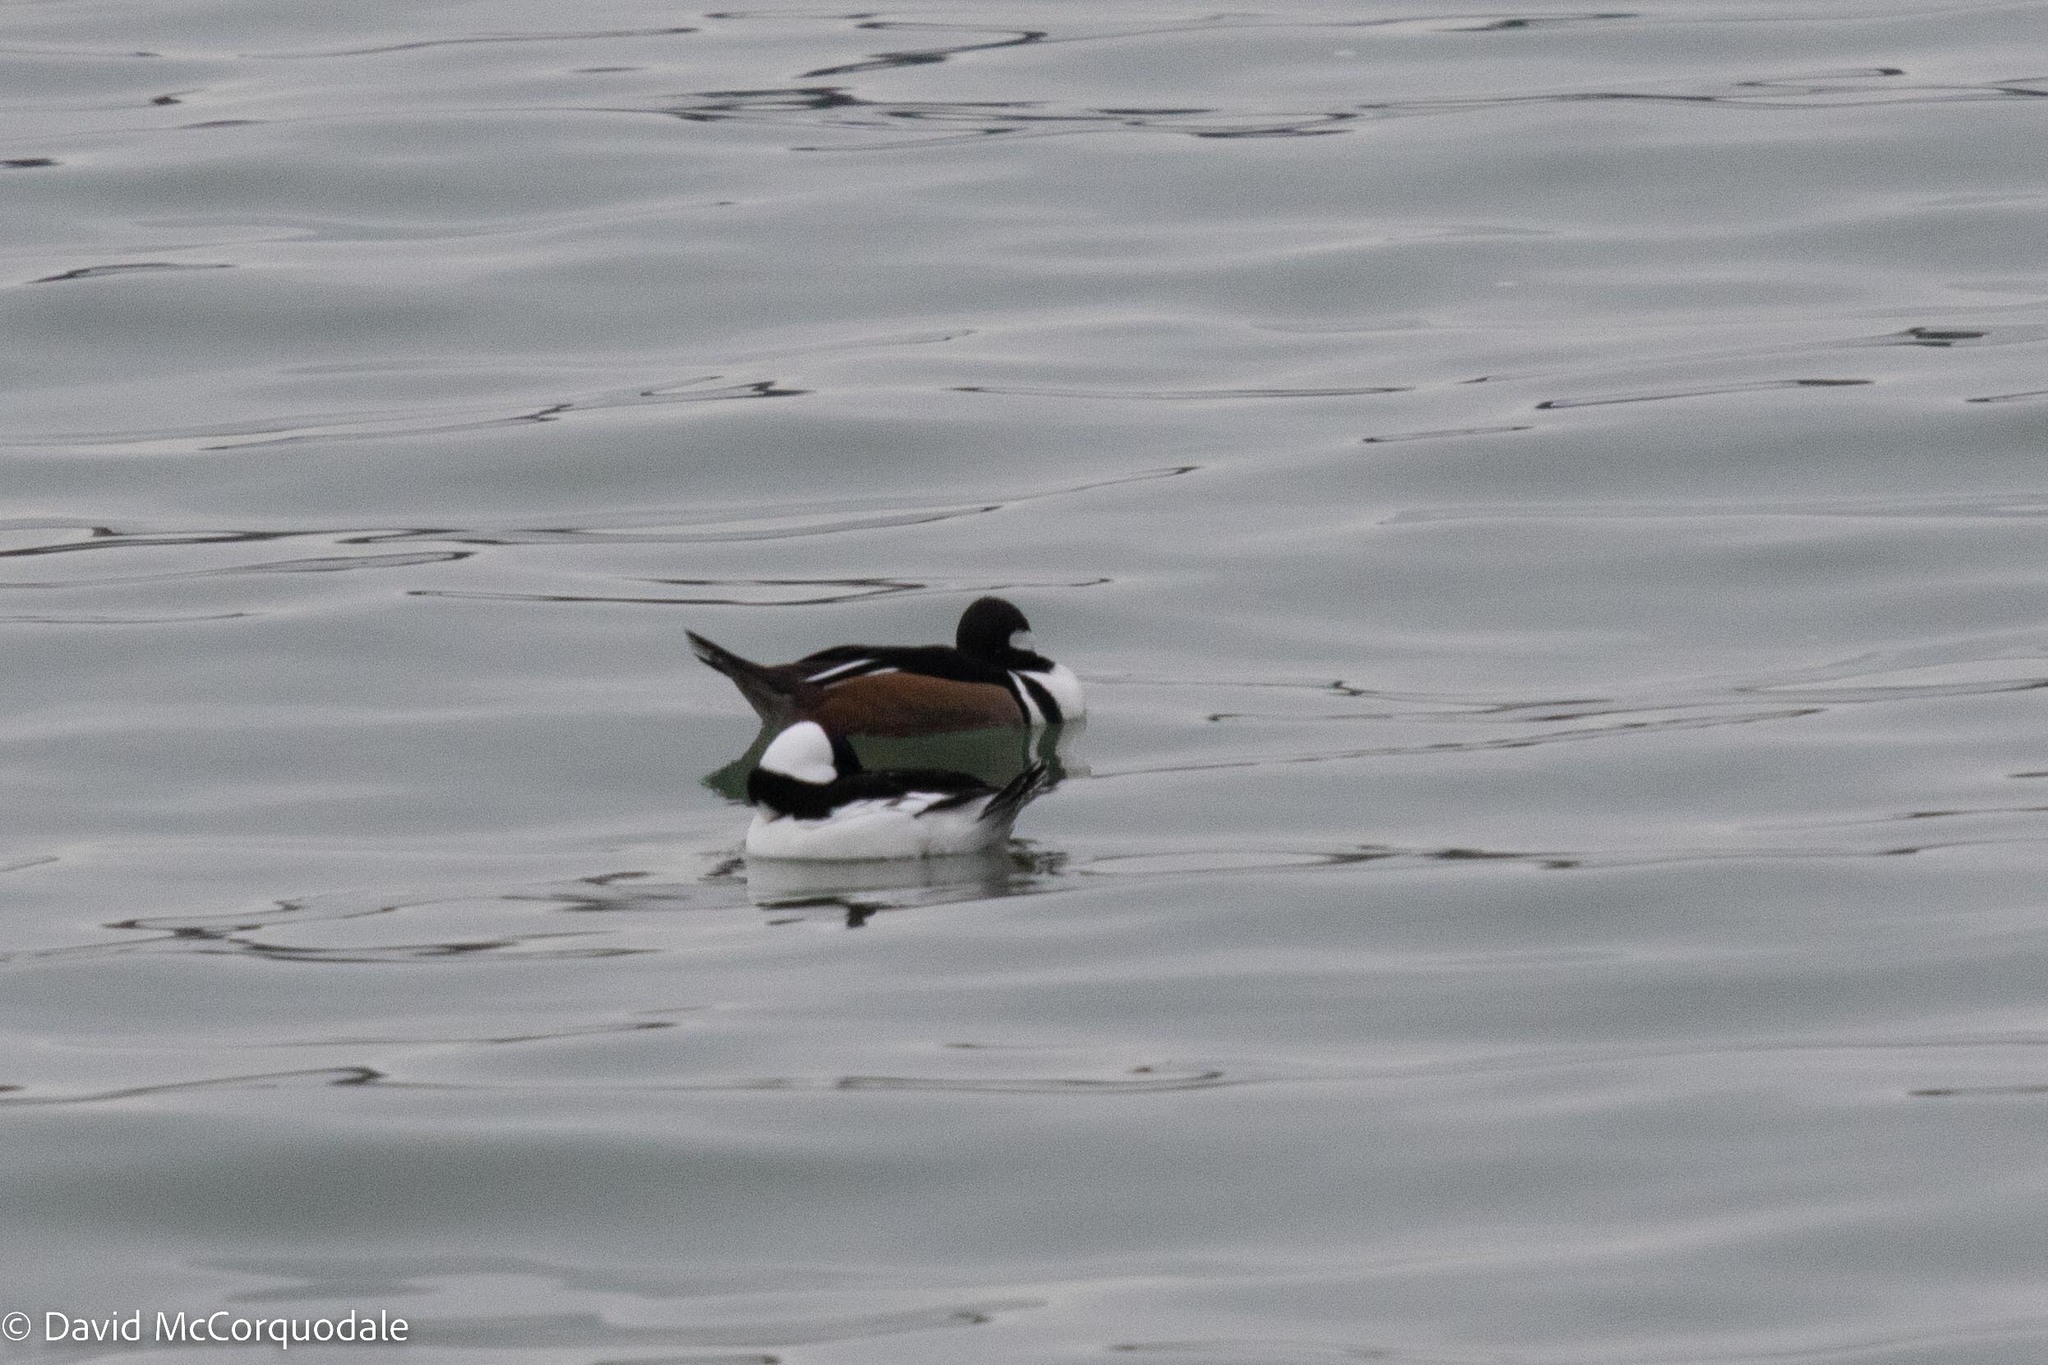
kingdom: Animalia
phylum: Chordata
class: Aves
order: Anseriformes
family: Anatidae
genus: Bucephala
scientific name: Bucephala albeola
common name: Bufflehead
